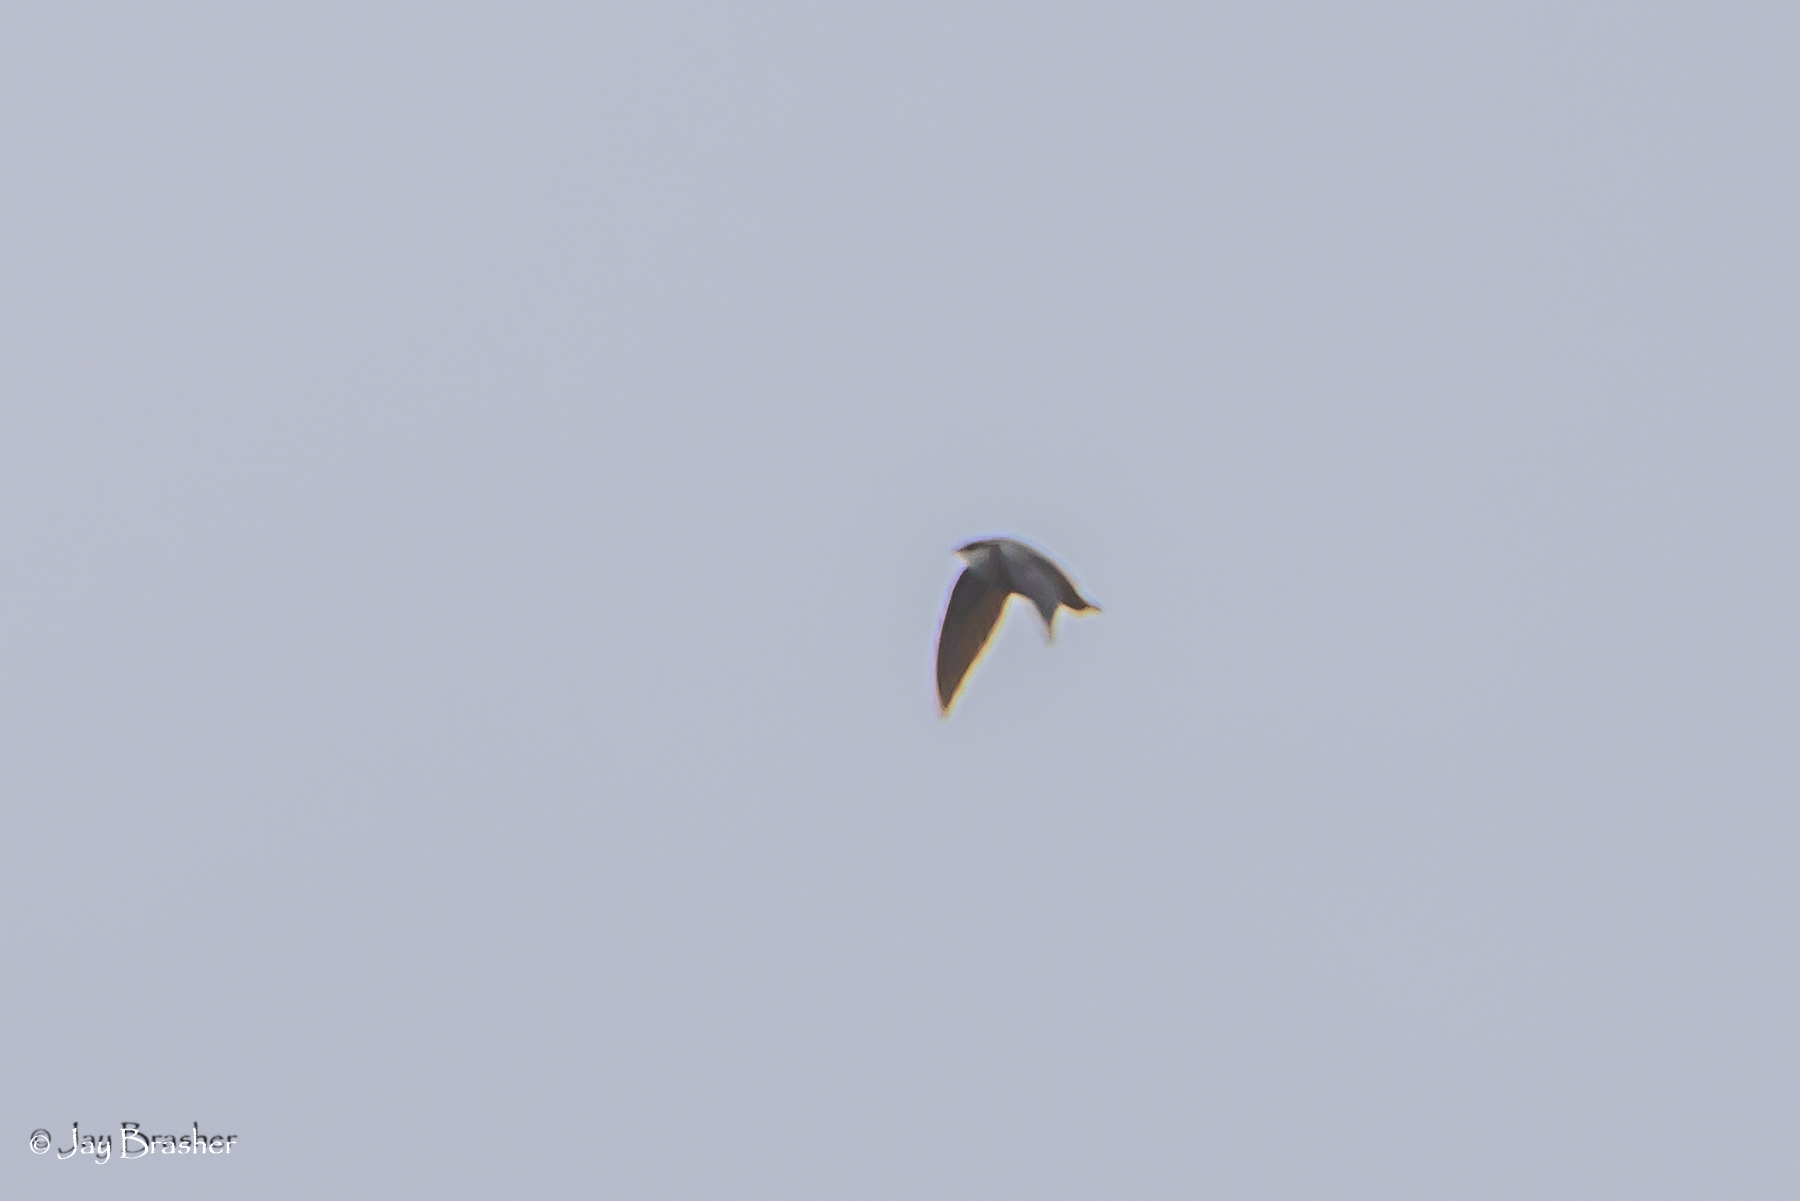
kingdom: Animalia
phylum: Chordata
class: Aves
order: Apodiformes
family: Apodidae
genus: Chaetura
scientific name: Chaetura pelagica
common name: Chimney swift
